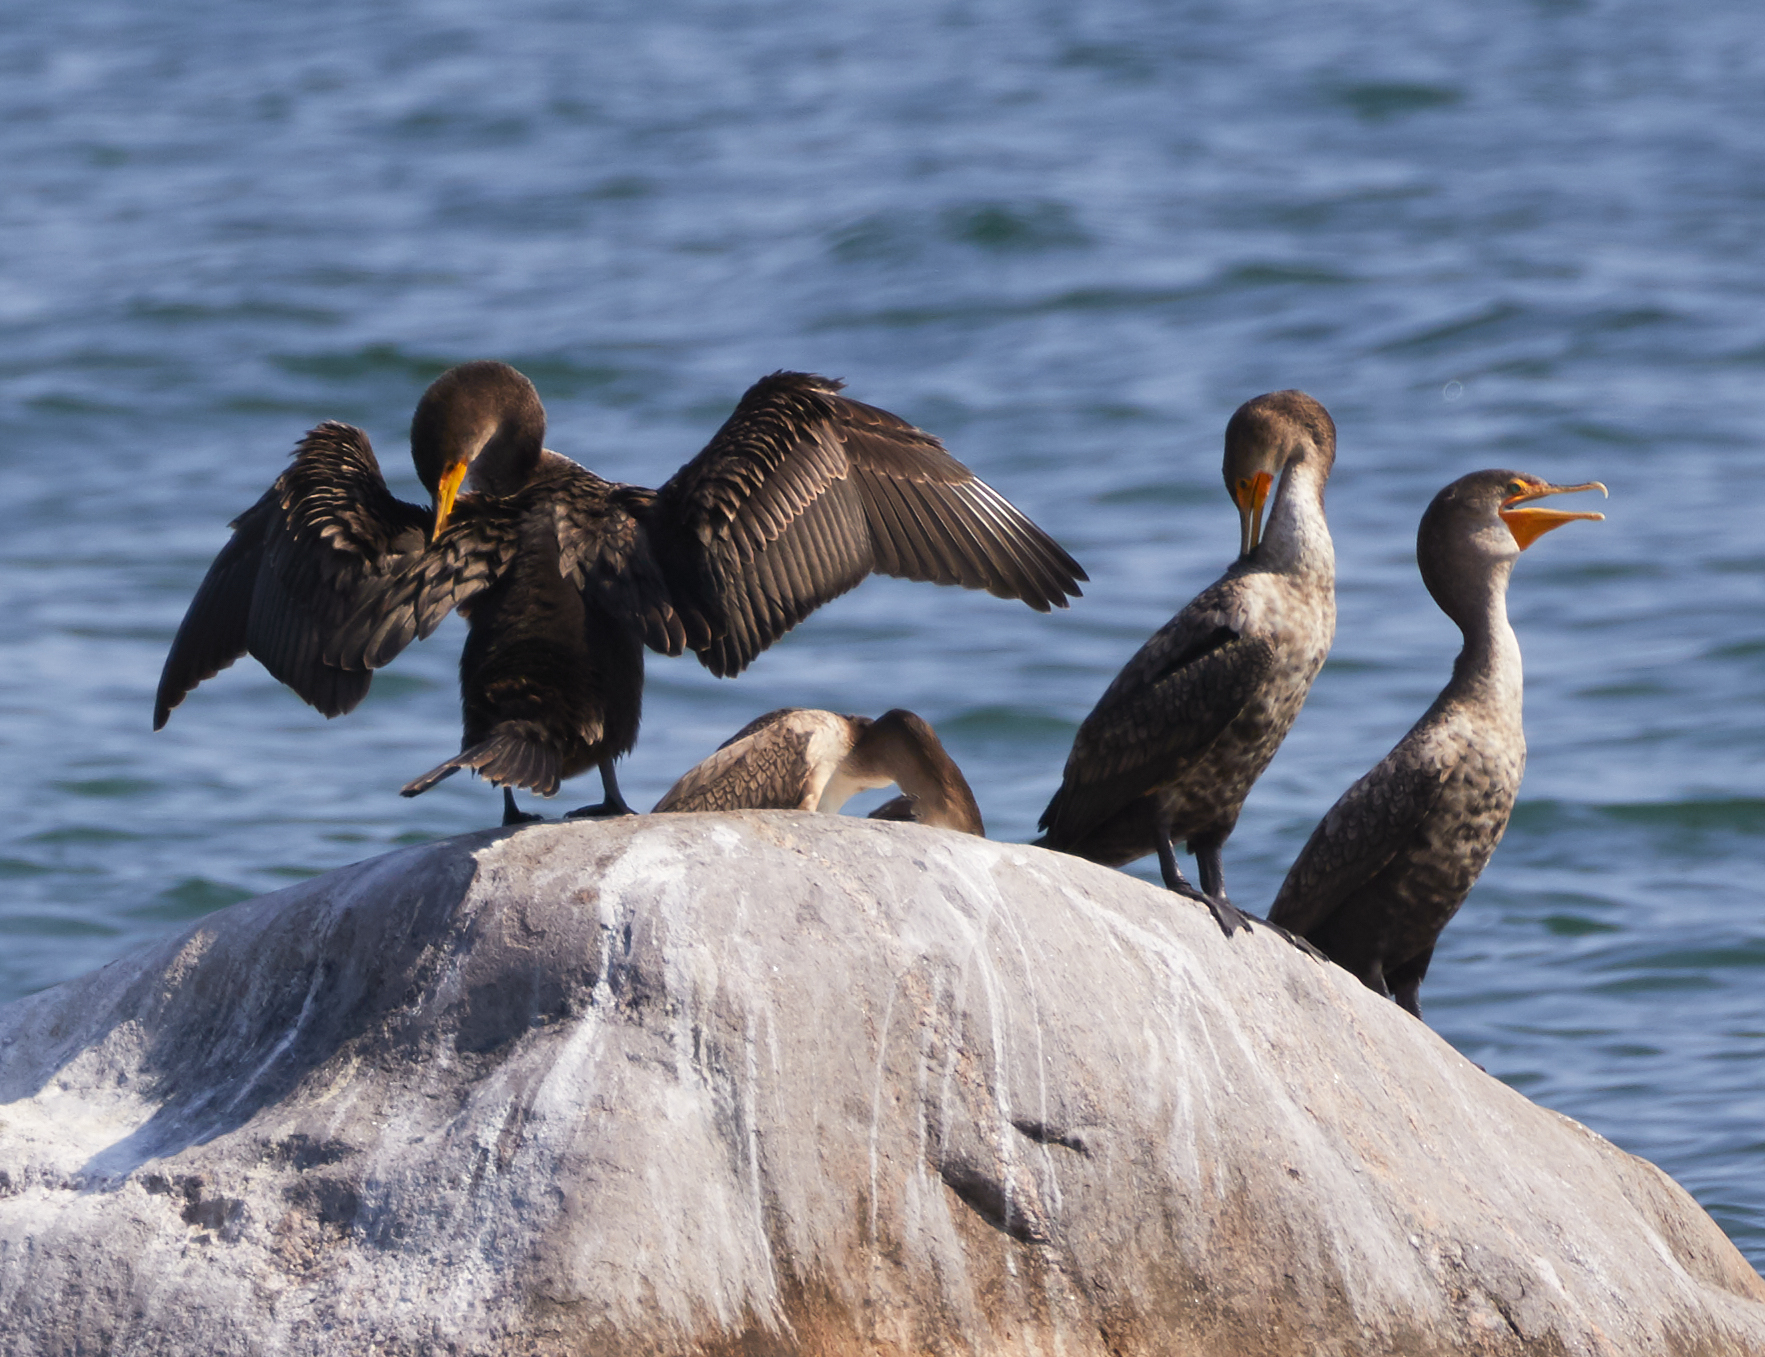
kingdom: Animalia
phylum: Chordata
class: Aves
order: Suliformes
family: Phalacrocoracidae
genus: Phalacrocorax
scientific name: Phalacrocorax auritus
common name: Double-crested cormorant
